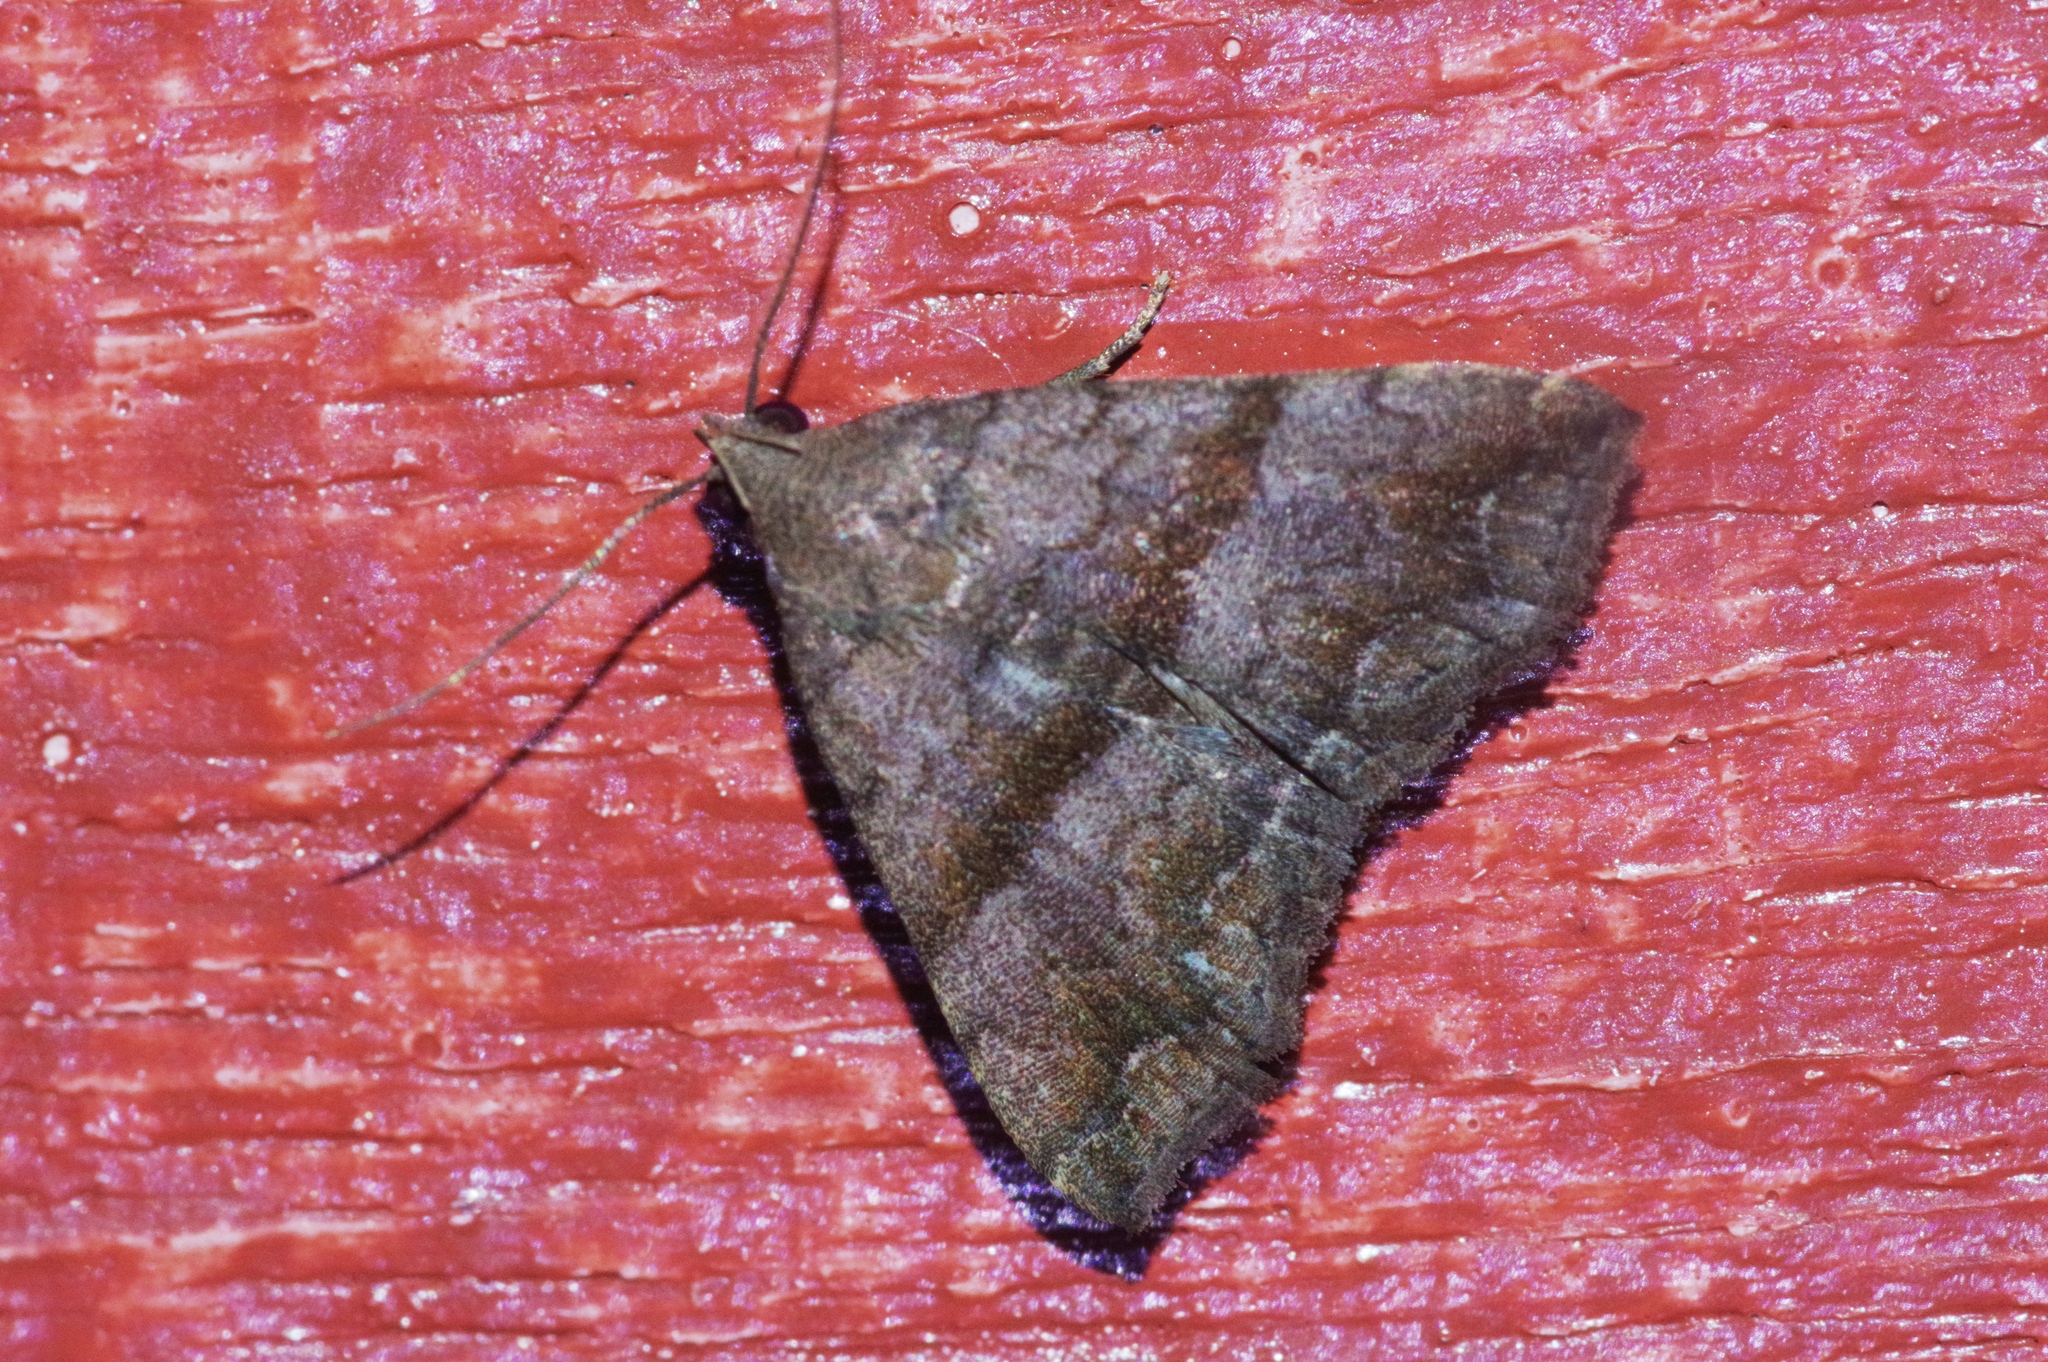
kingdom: Animalia
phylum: Arthropoda
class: Insecta
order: Lepidoptera
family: Erebidae
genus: Polypogon
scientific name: Polypogon Hipoepa fractalis
